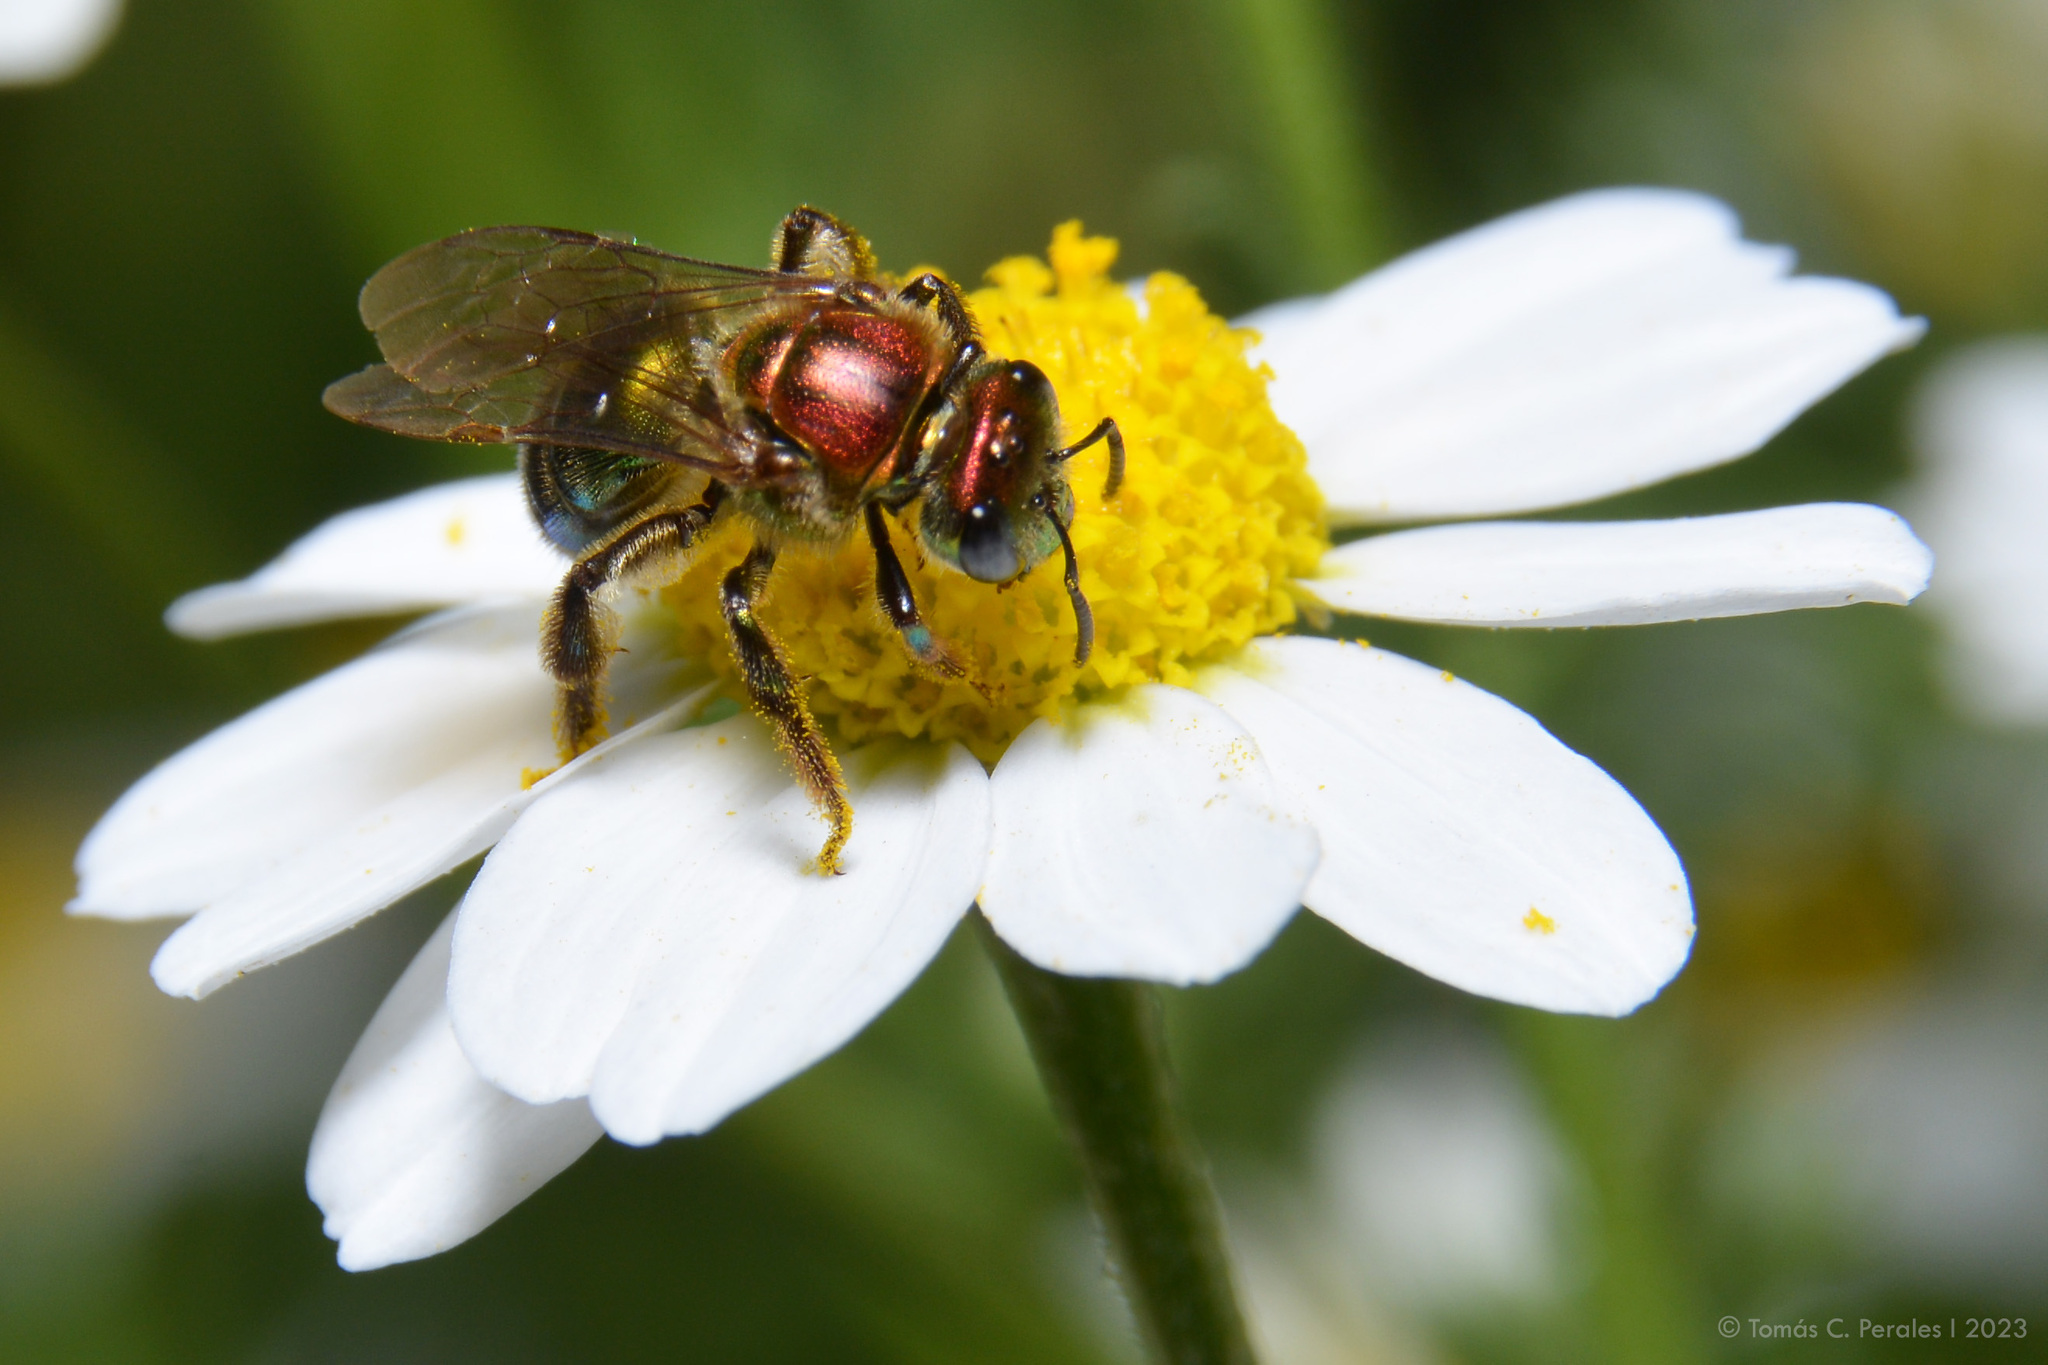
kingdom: Animalia
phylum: Arthropoda
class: Insecta
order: Hymenoptera
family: Halictidae
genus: Augochloropsis
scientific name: Augochloropsis tupacamaru
